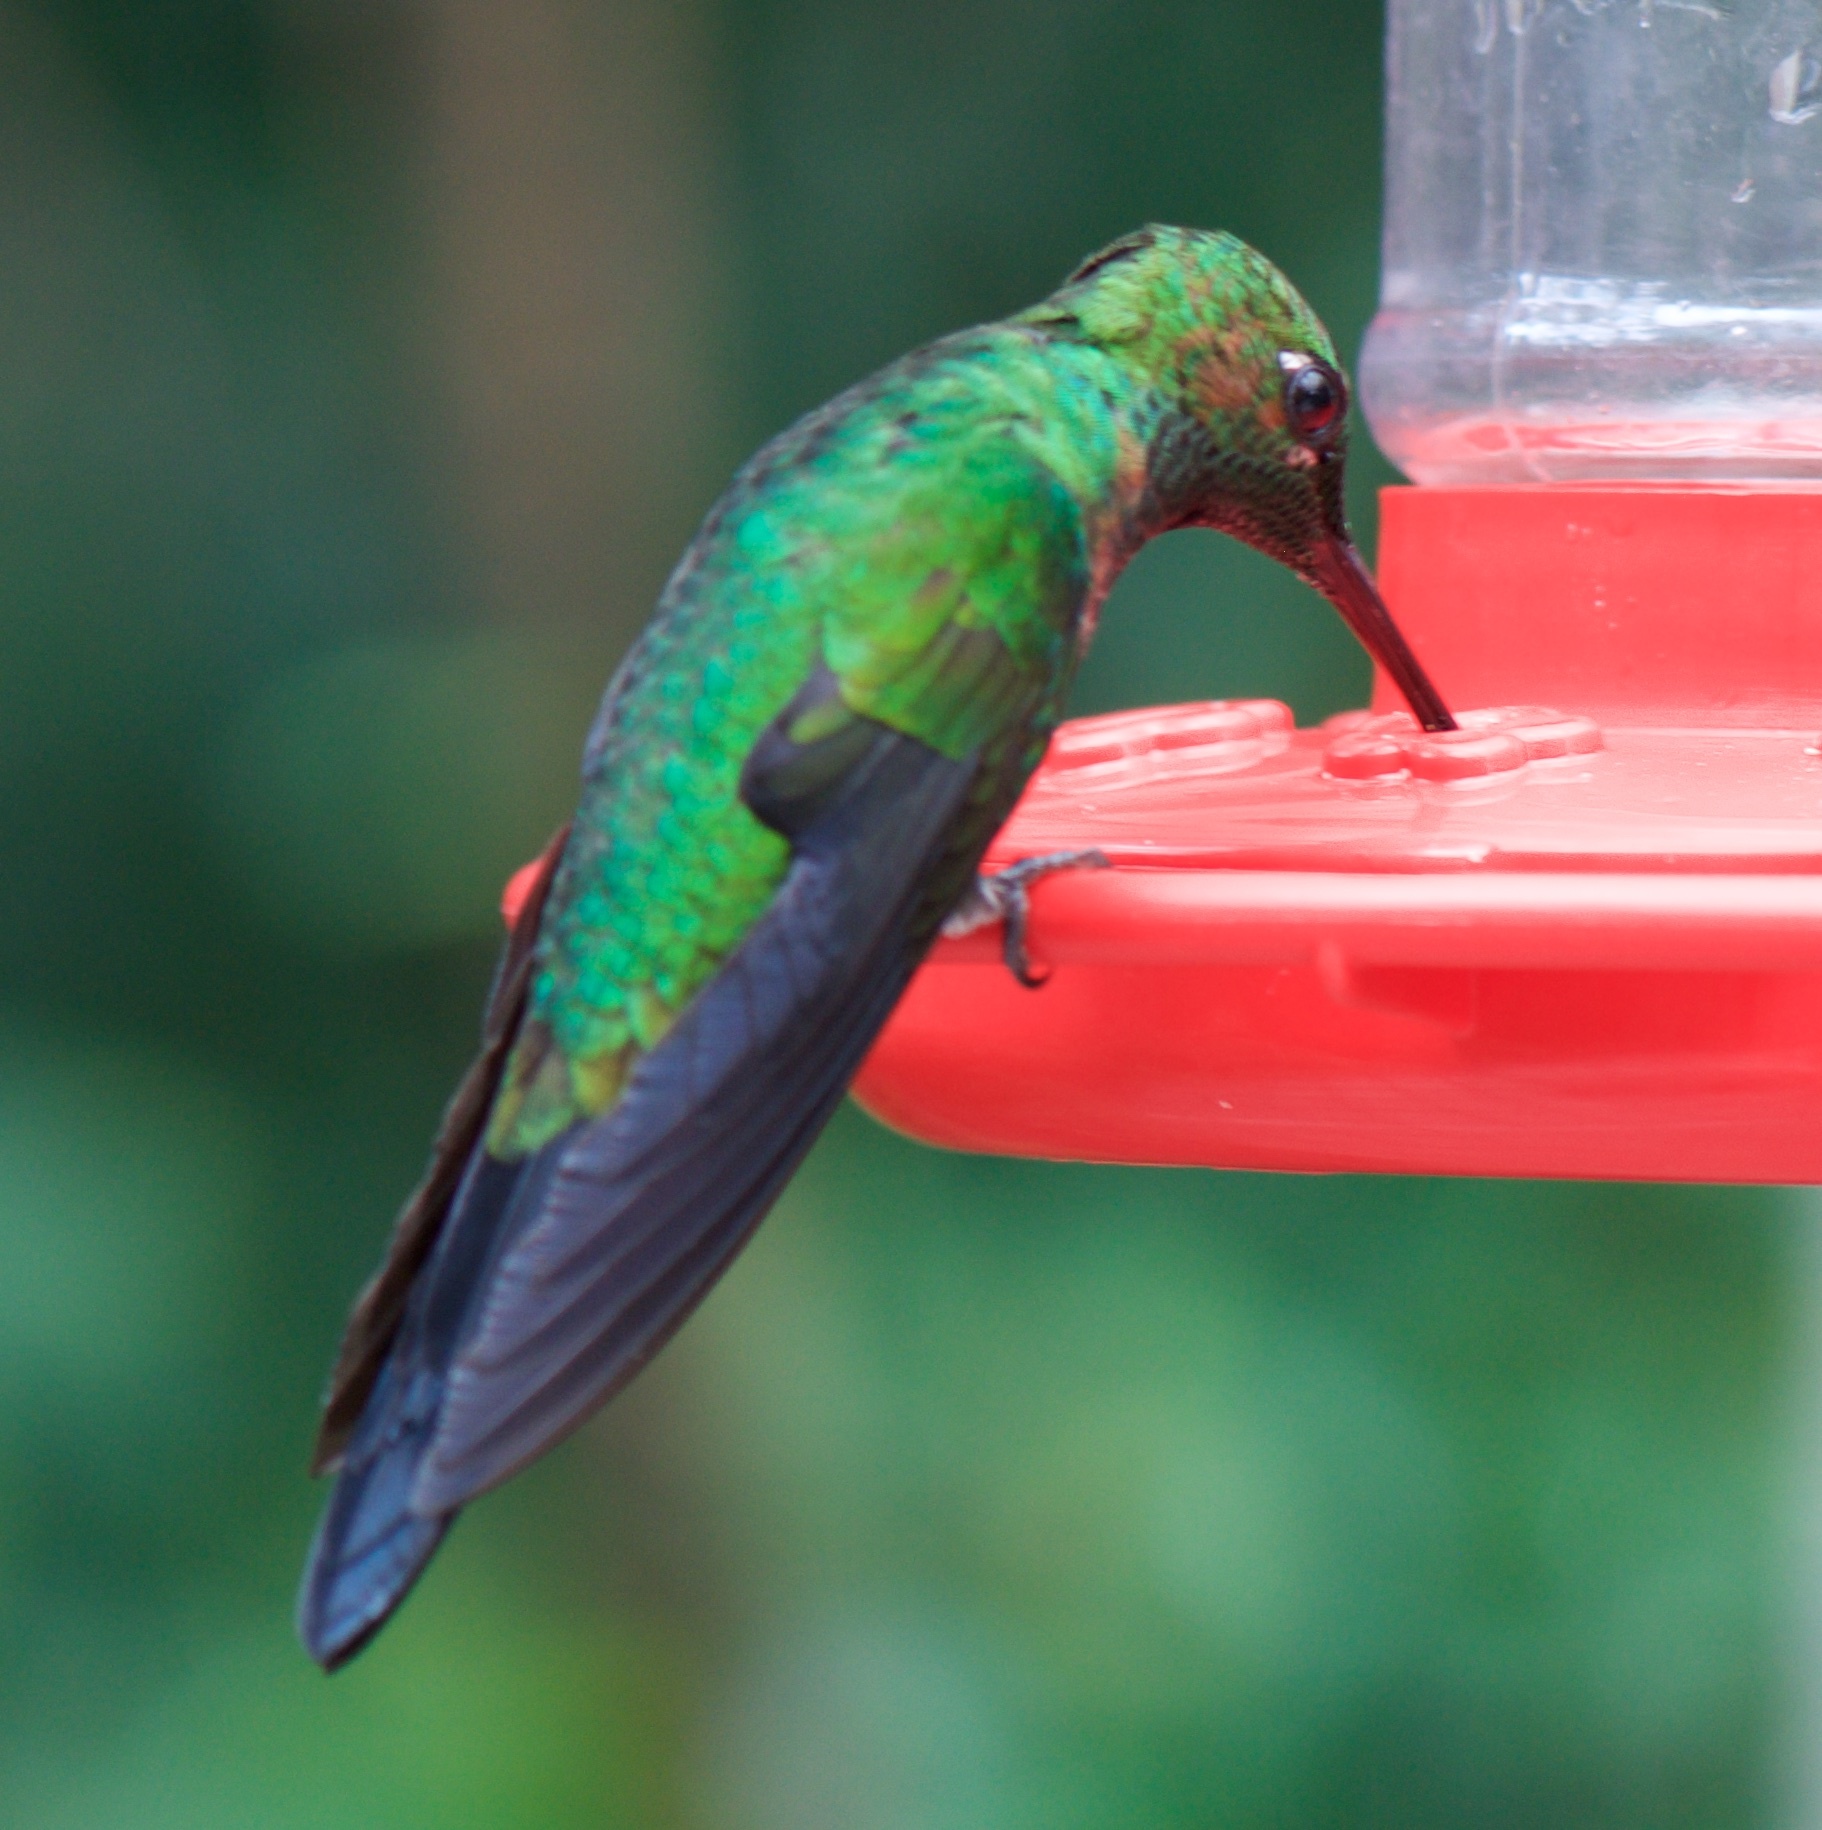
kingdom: Animalia
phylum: Chordata
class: Aves
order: Apodiformes
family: Trochilidae
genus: Heliodoxa
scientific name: Heliodoxa jacula
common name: Green-crowned brilliant
